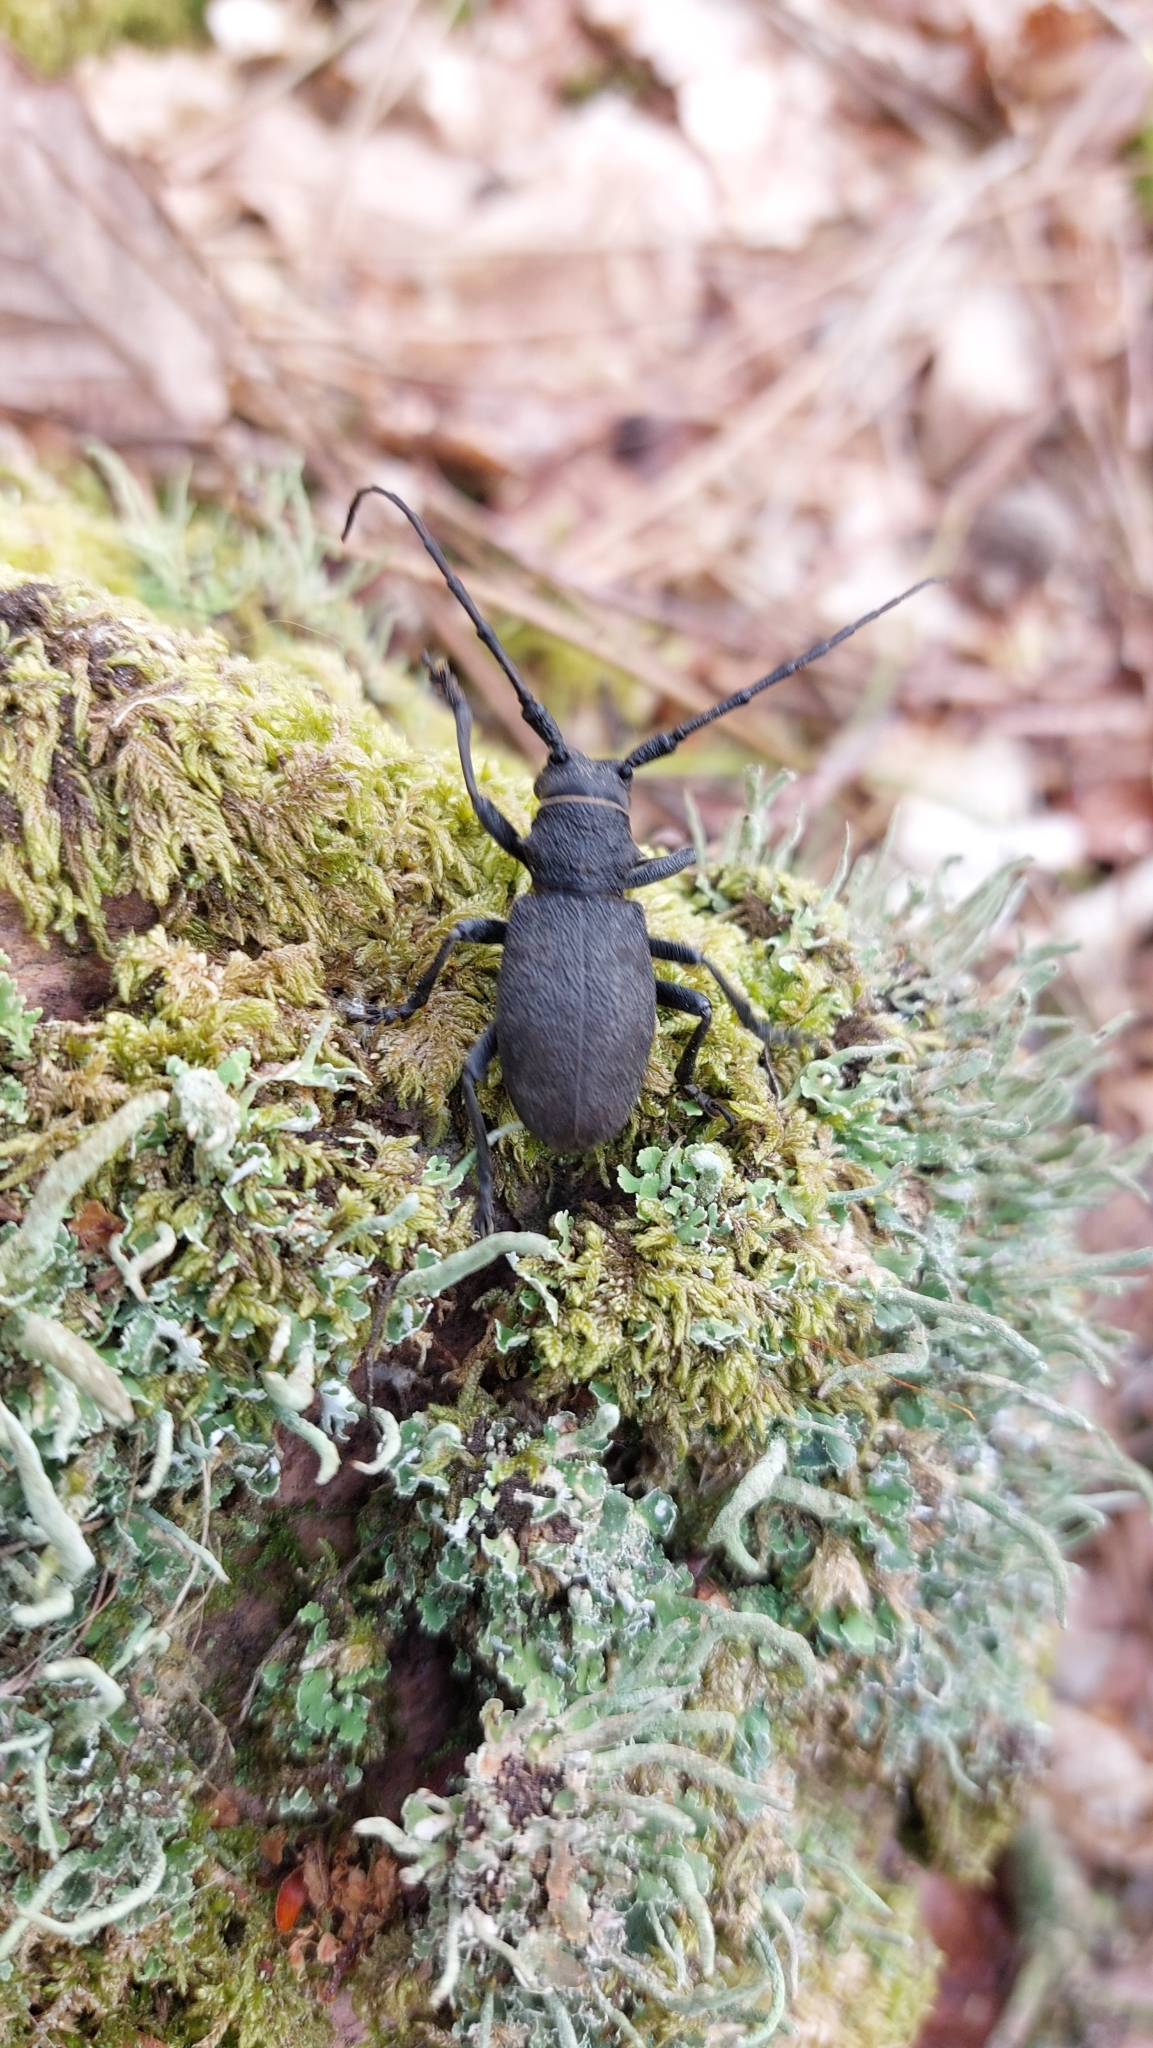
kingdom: Animalia
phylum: Arthropoda
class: Insecta
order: Coleoptera
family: Cerambycidae
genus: Morimus
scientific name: Morimus asper
